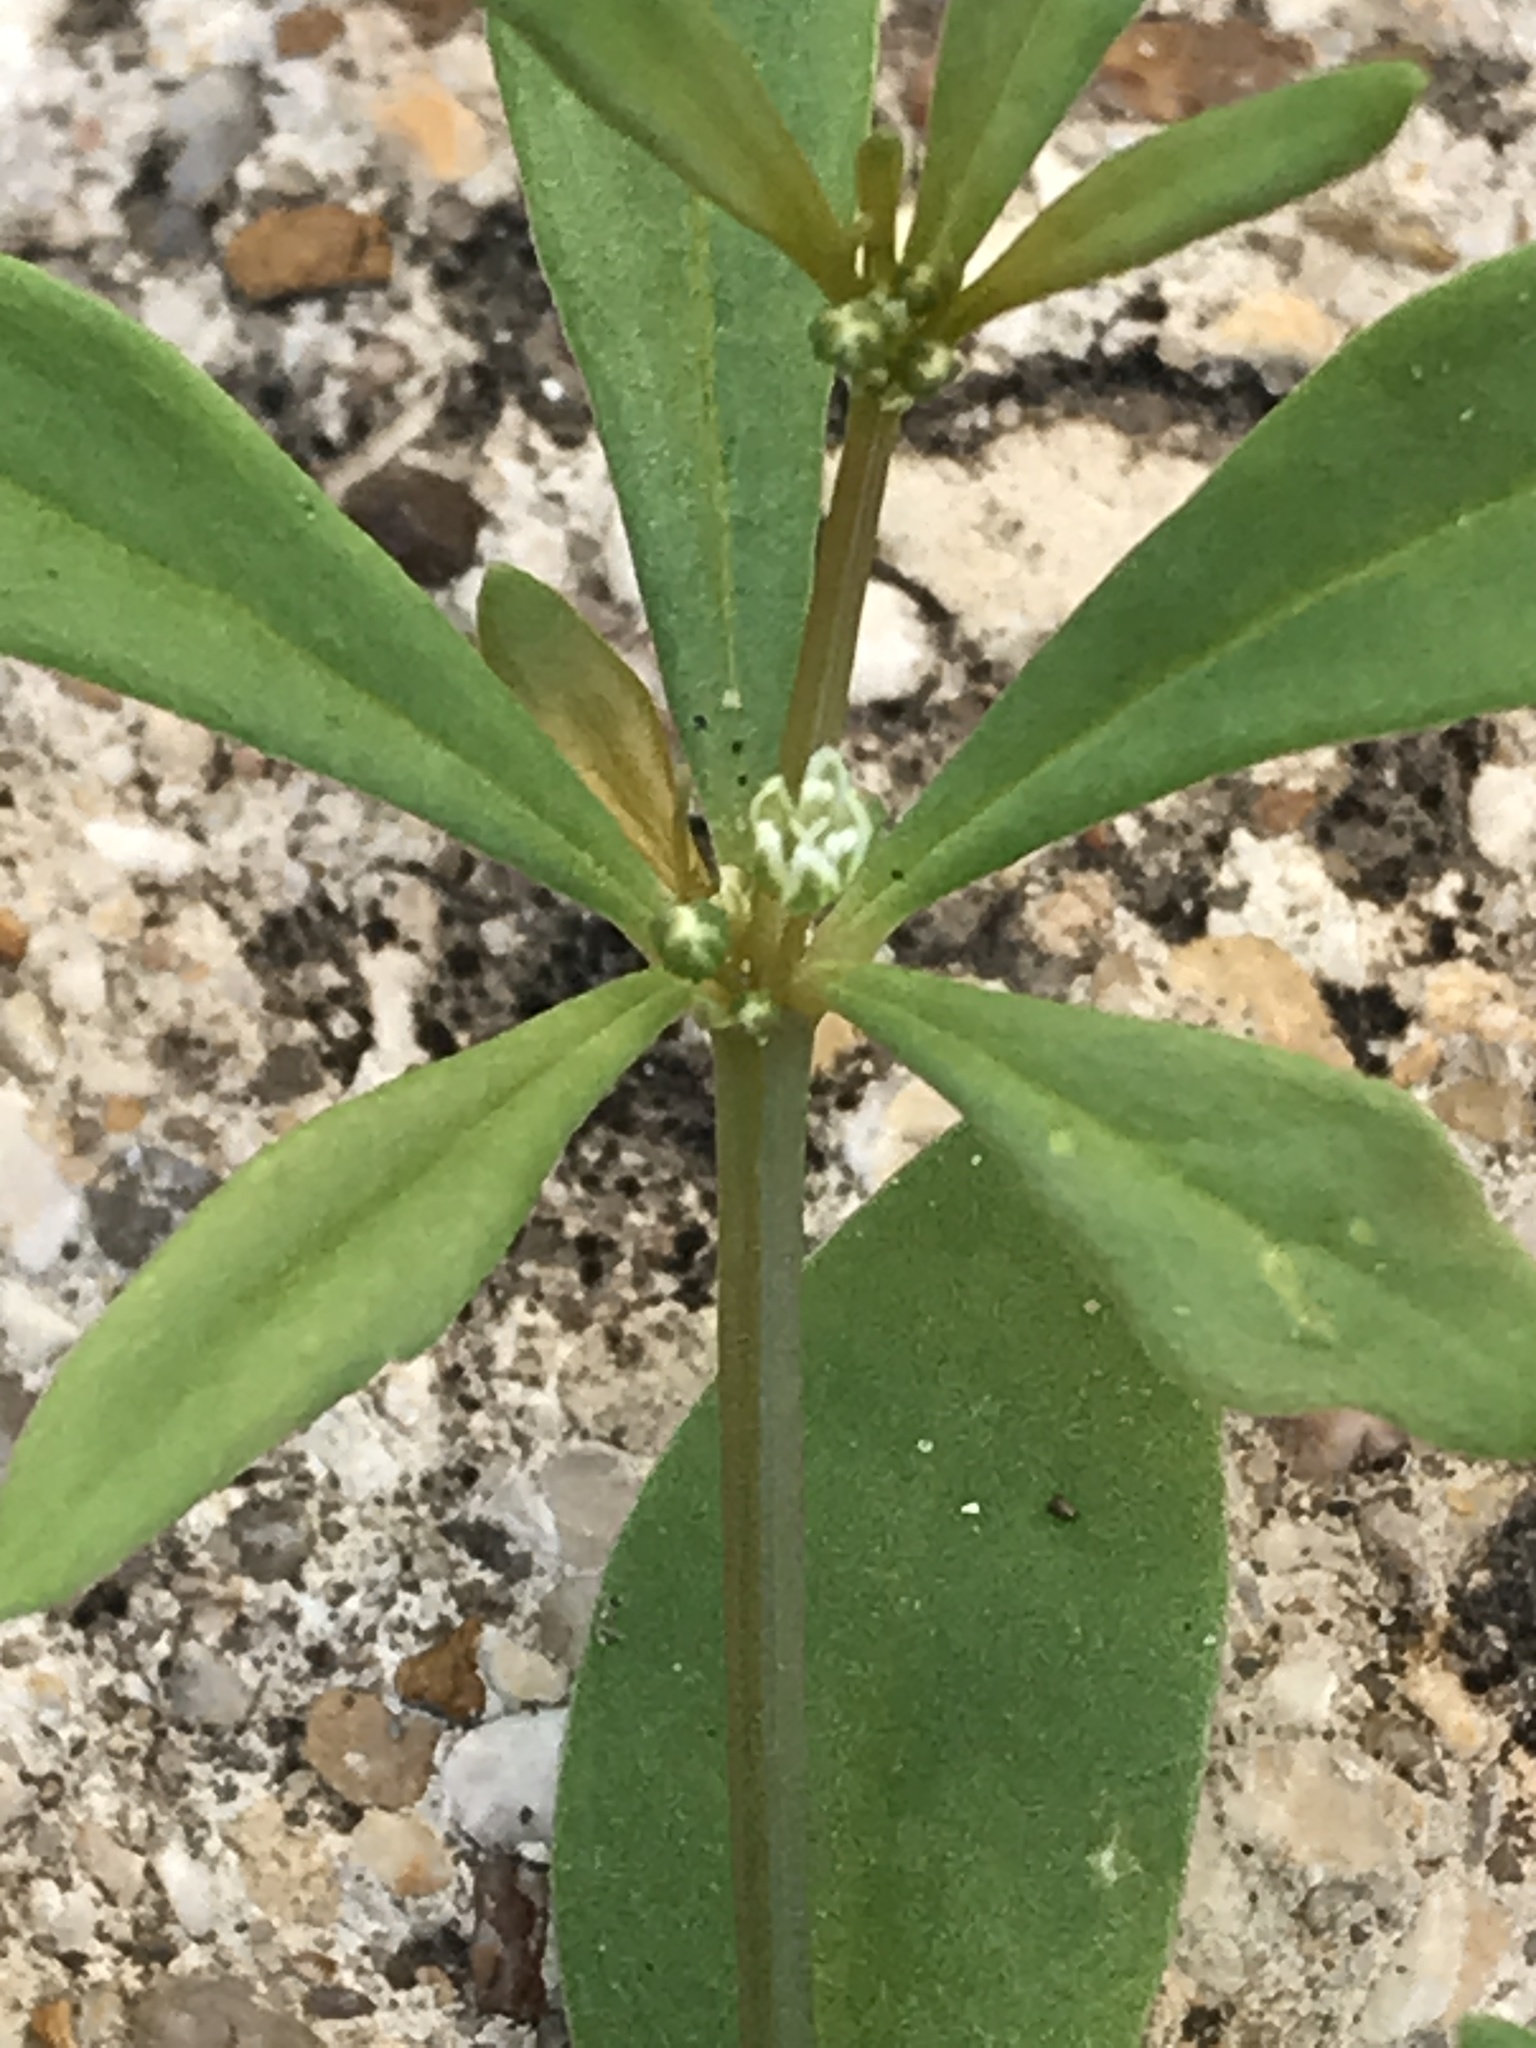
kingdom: Plantae
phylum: Tracheophyta
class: Magnoliopsida
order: Caryophyllales
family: Molluginaceae
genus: Mollugo
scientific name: Mollugo verticillata
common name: Green carpetweed
